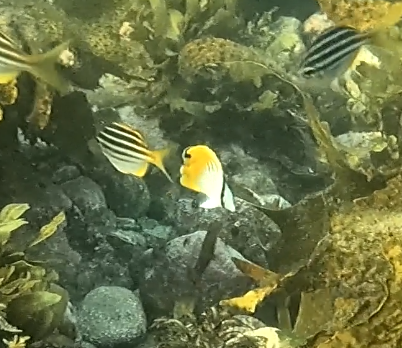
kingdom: Animalia
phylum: Chordata
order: Perciformes
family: Chaetodontidae
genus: Chaetodon
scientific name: Chaetodon auriga
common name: Threadfin butterflyfish
